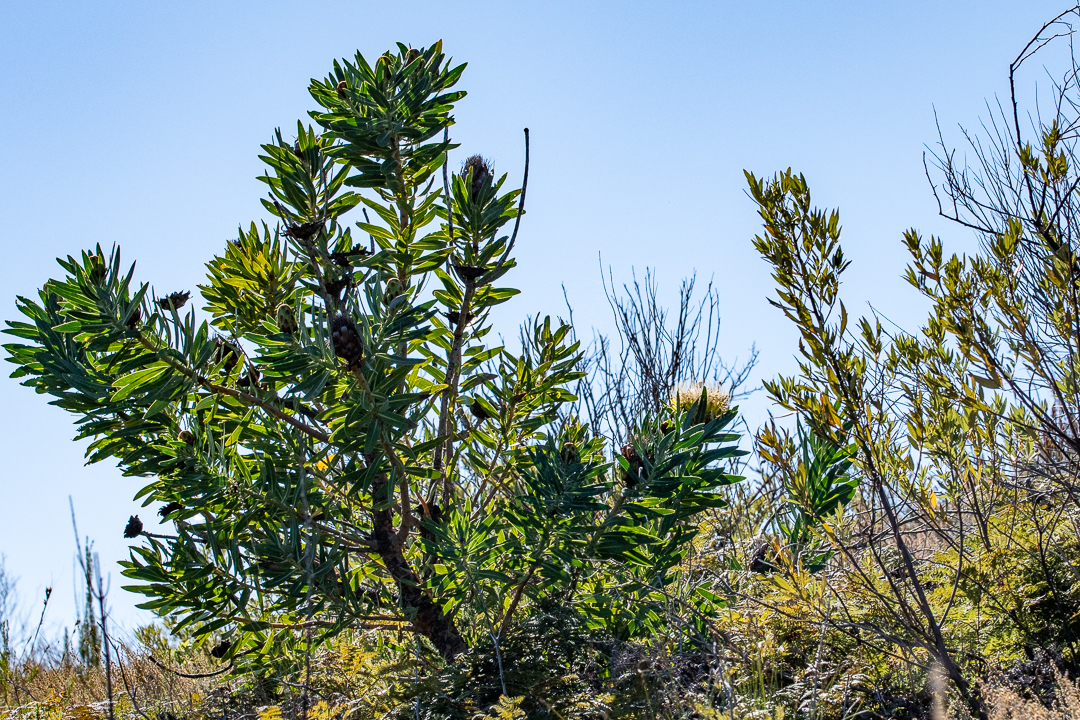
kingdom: Plantae
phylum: Tracheophyta
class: Magnoliopsida
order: Proteales
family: Proteaceae
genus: Protea
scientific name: Protea nitida
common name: Tree protea
